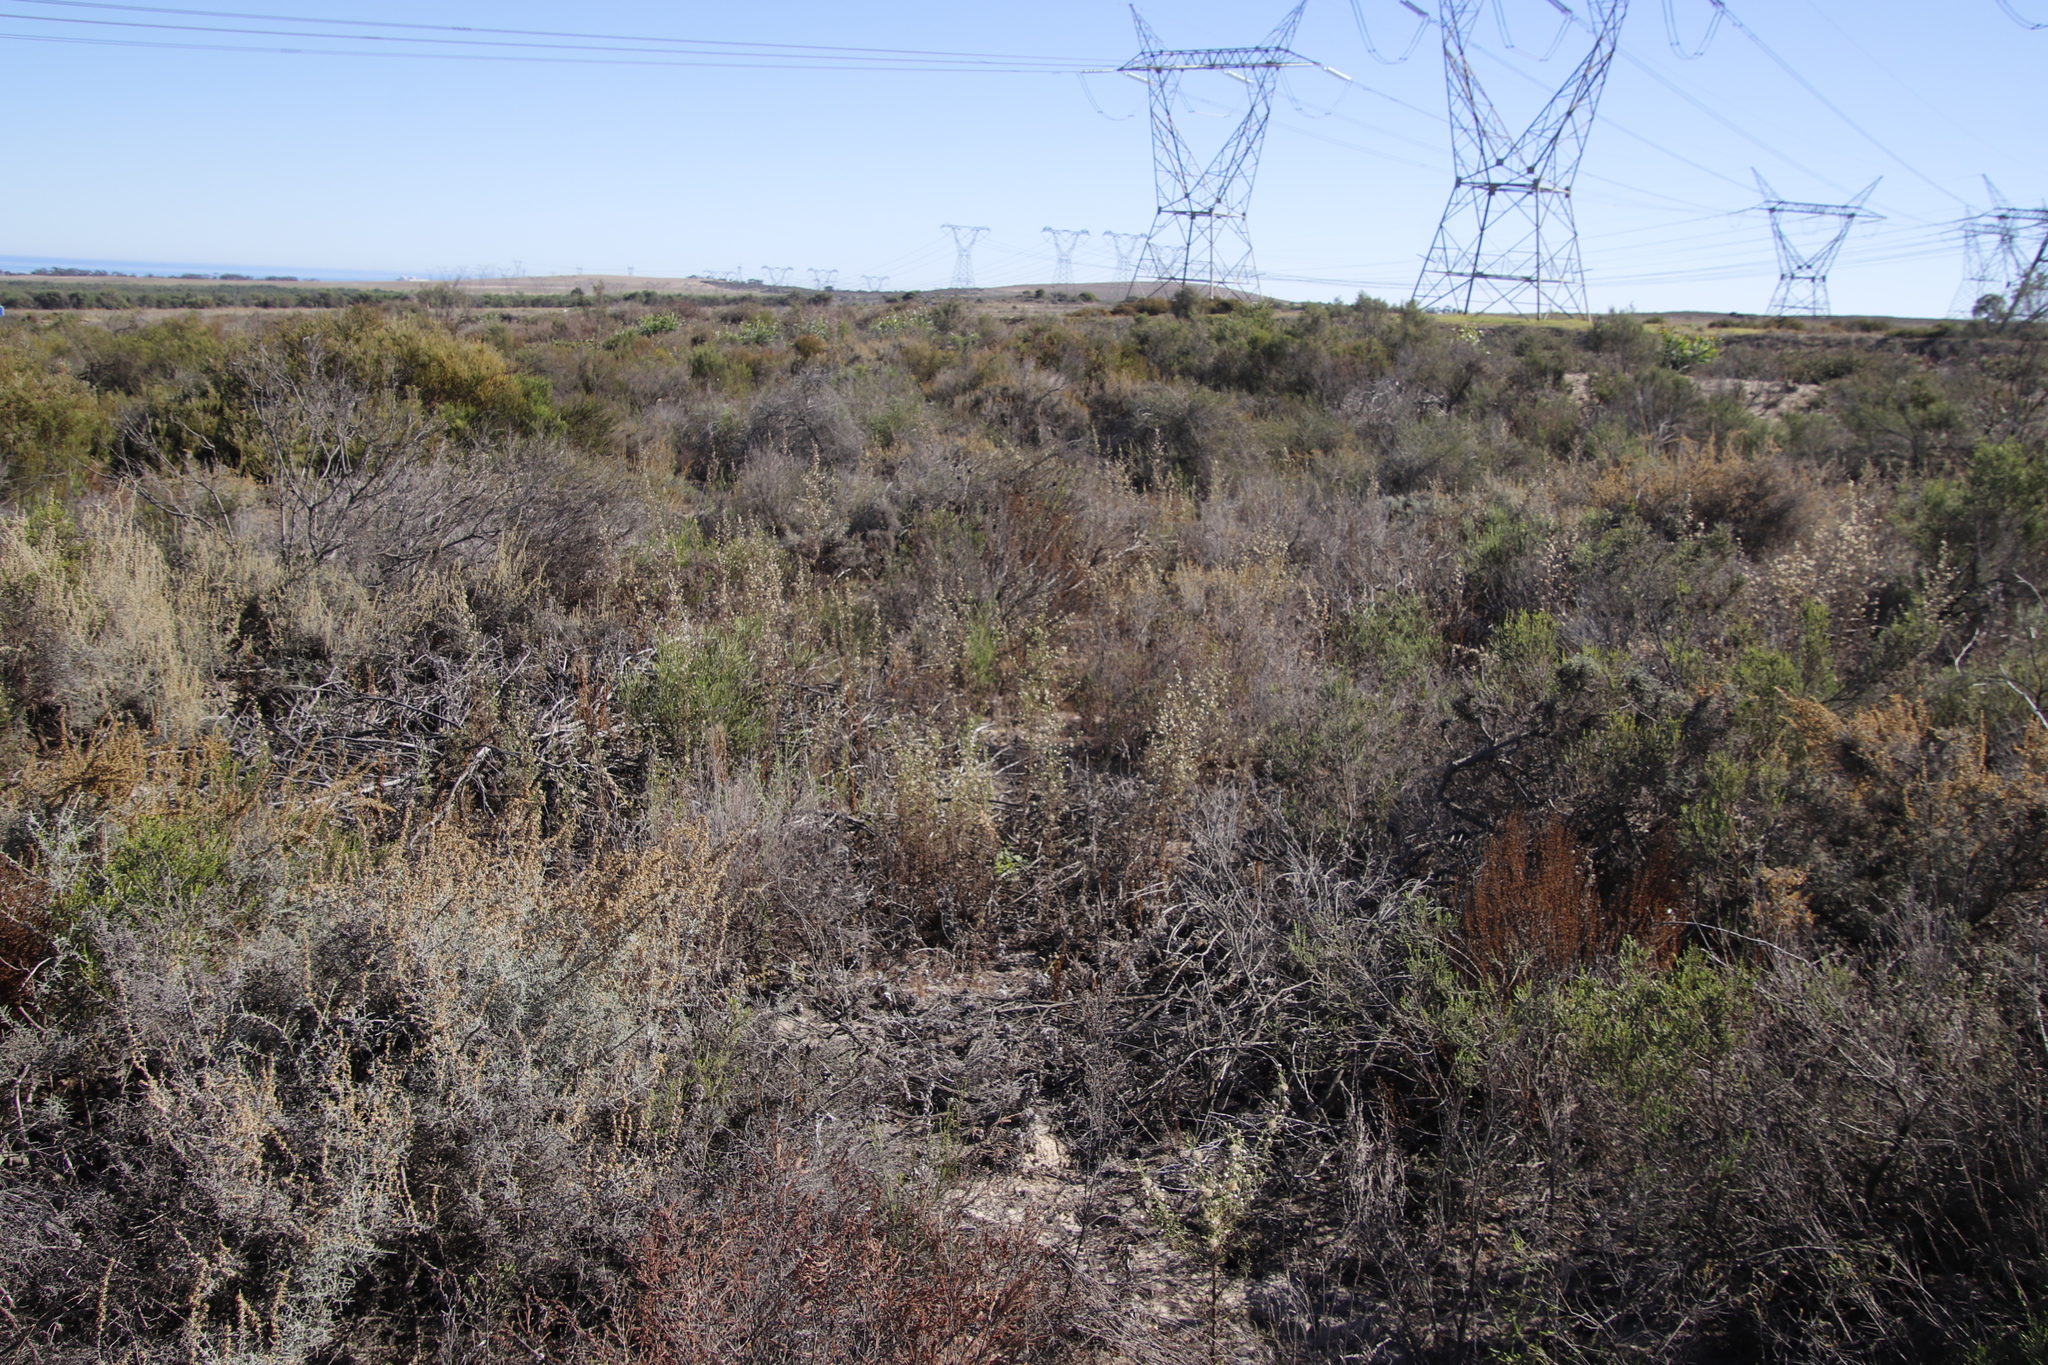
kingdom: Plantae
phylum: Tracheophyta
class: Magnoliopsida
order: Asterales
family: Asteraceae
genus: Dittrichia
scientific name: Dittrichia graveolens
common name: Stinking fleabane
